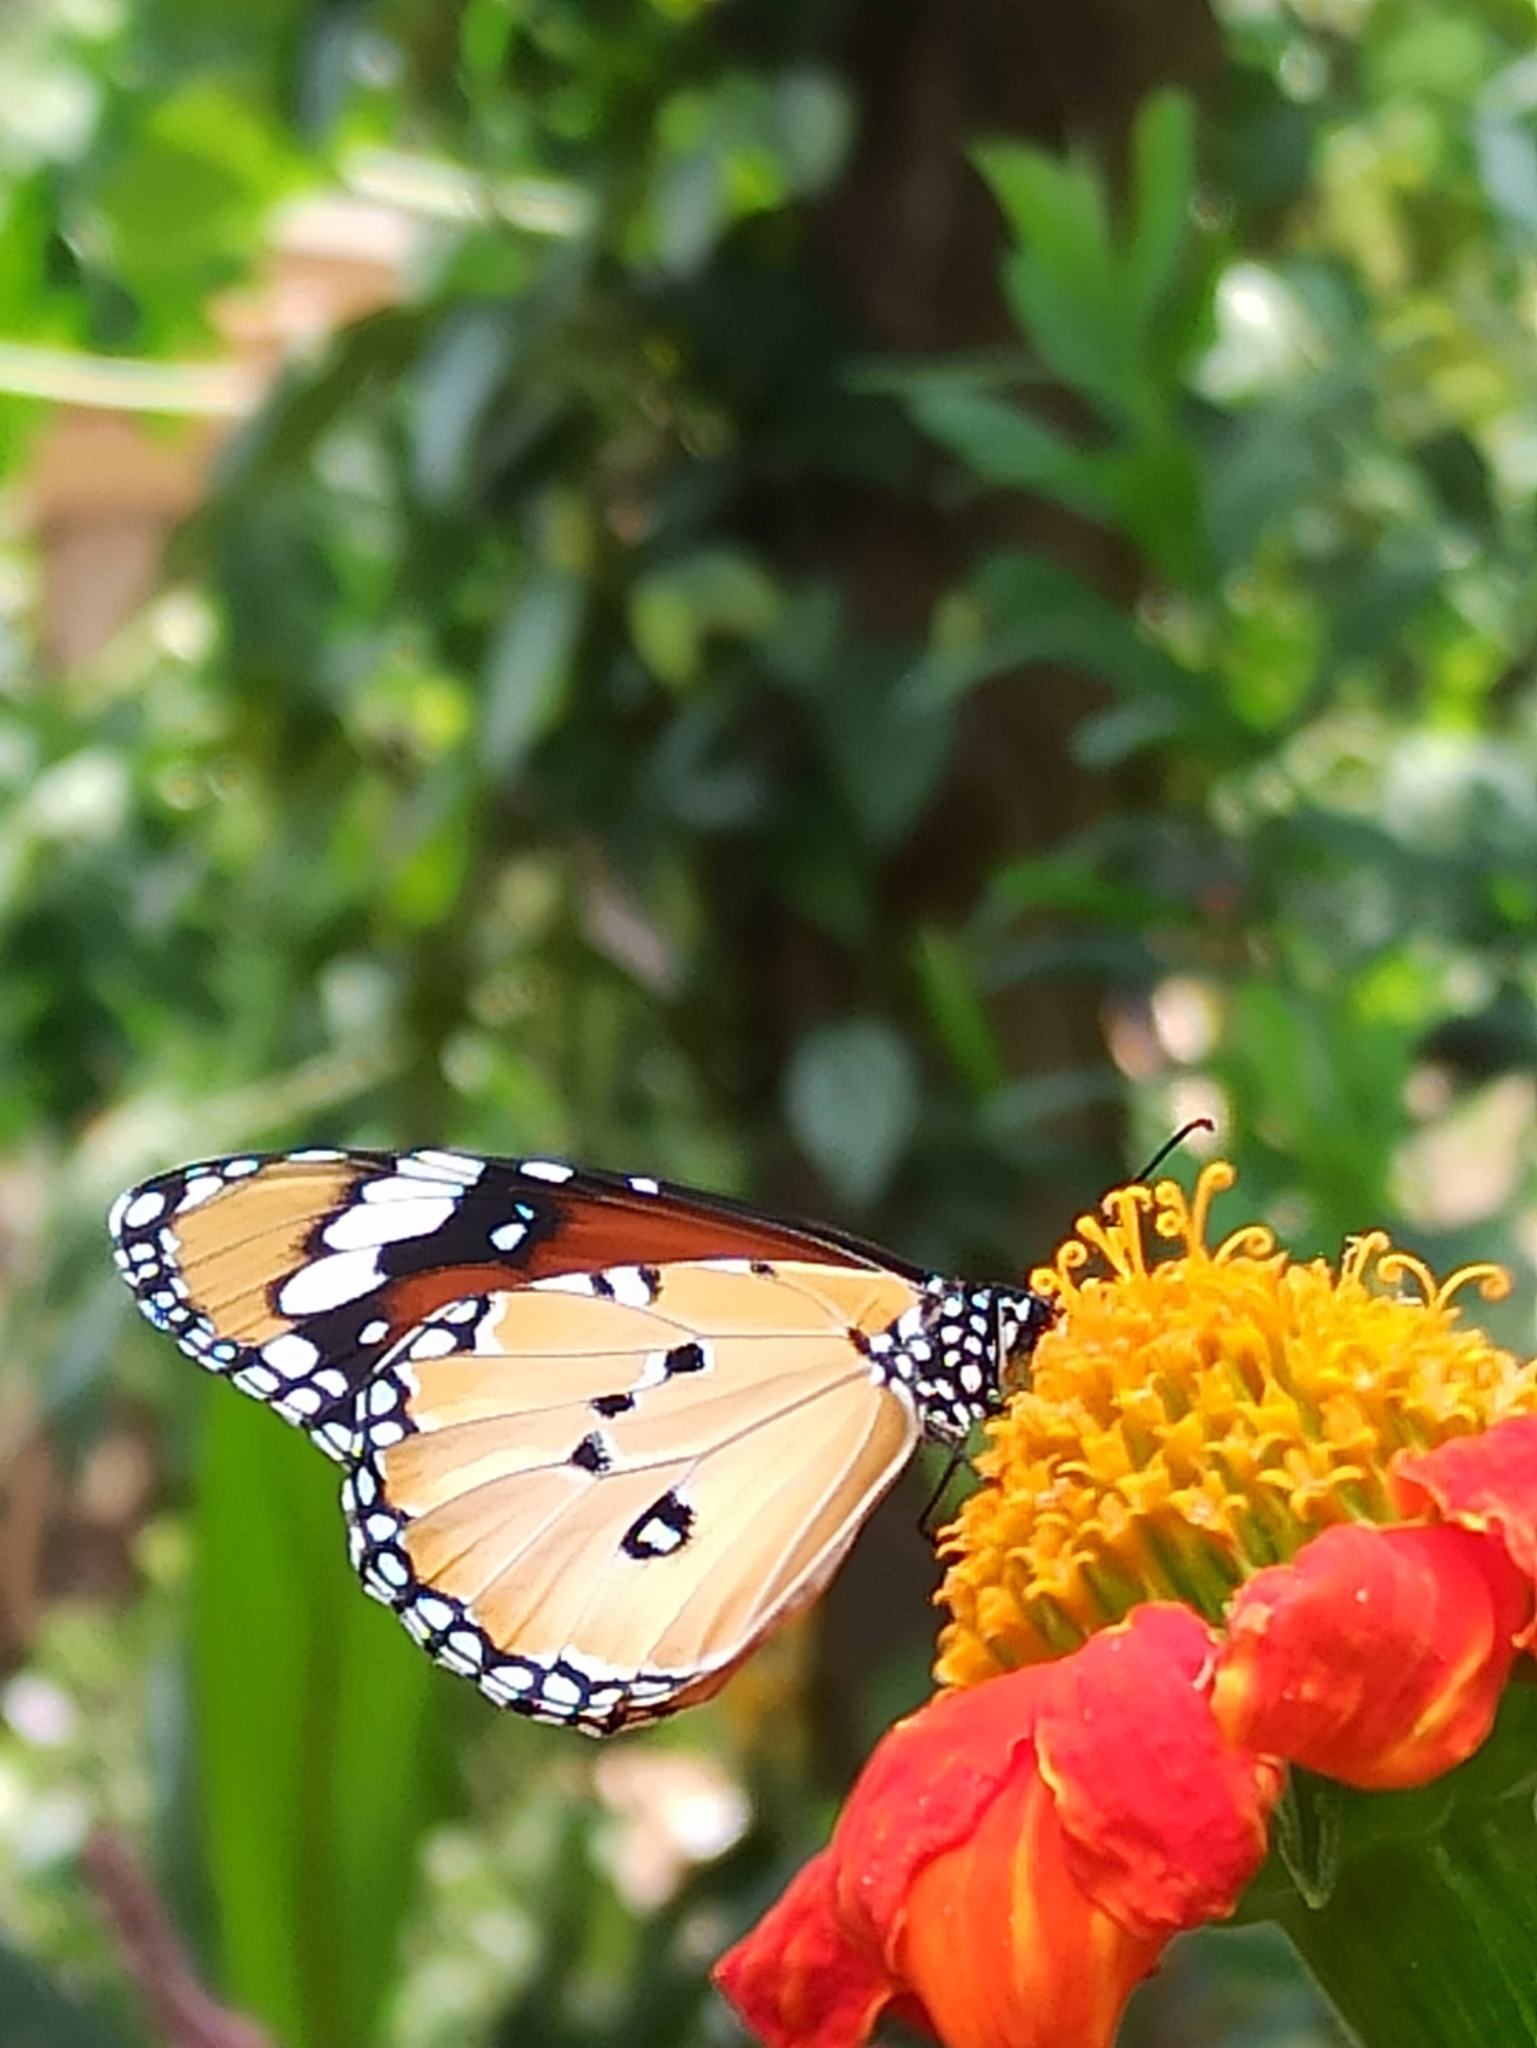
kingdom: Animalia
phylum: Arthropoda
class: Insecta
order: Lepidoptera
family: Nymphalidae
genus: Danaus
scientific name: Danaus chrysippus
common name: Plain tiger
